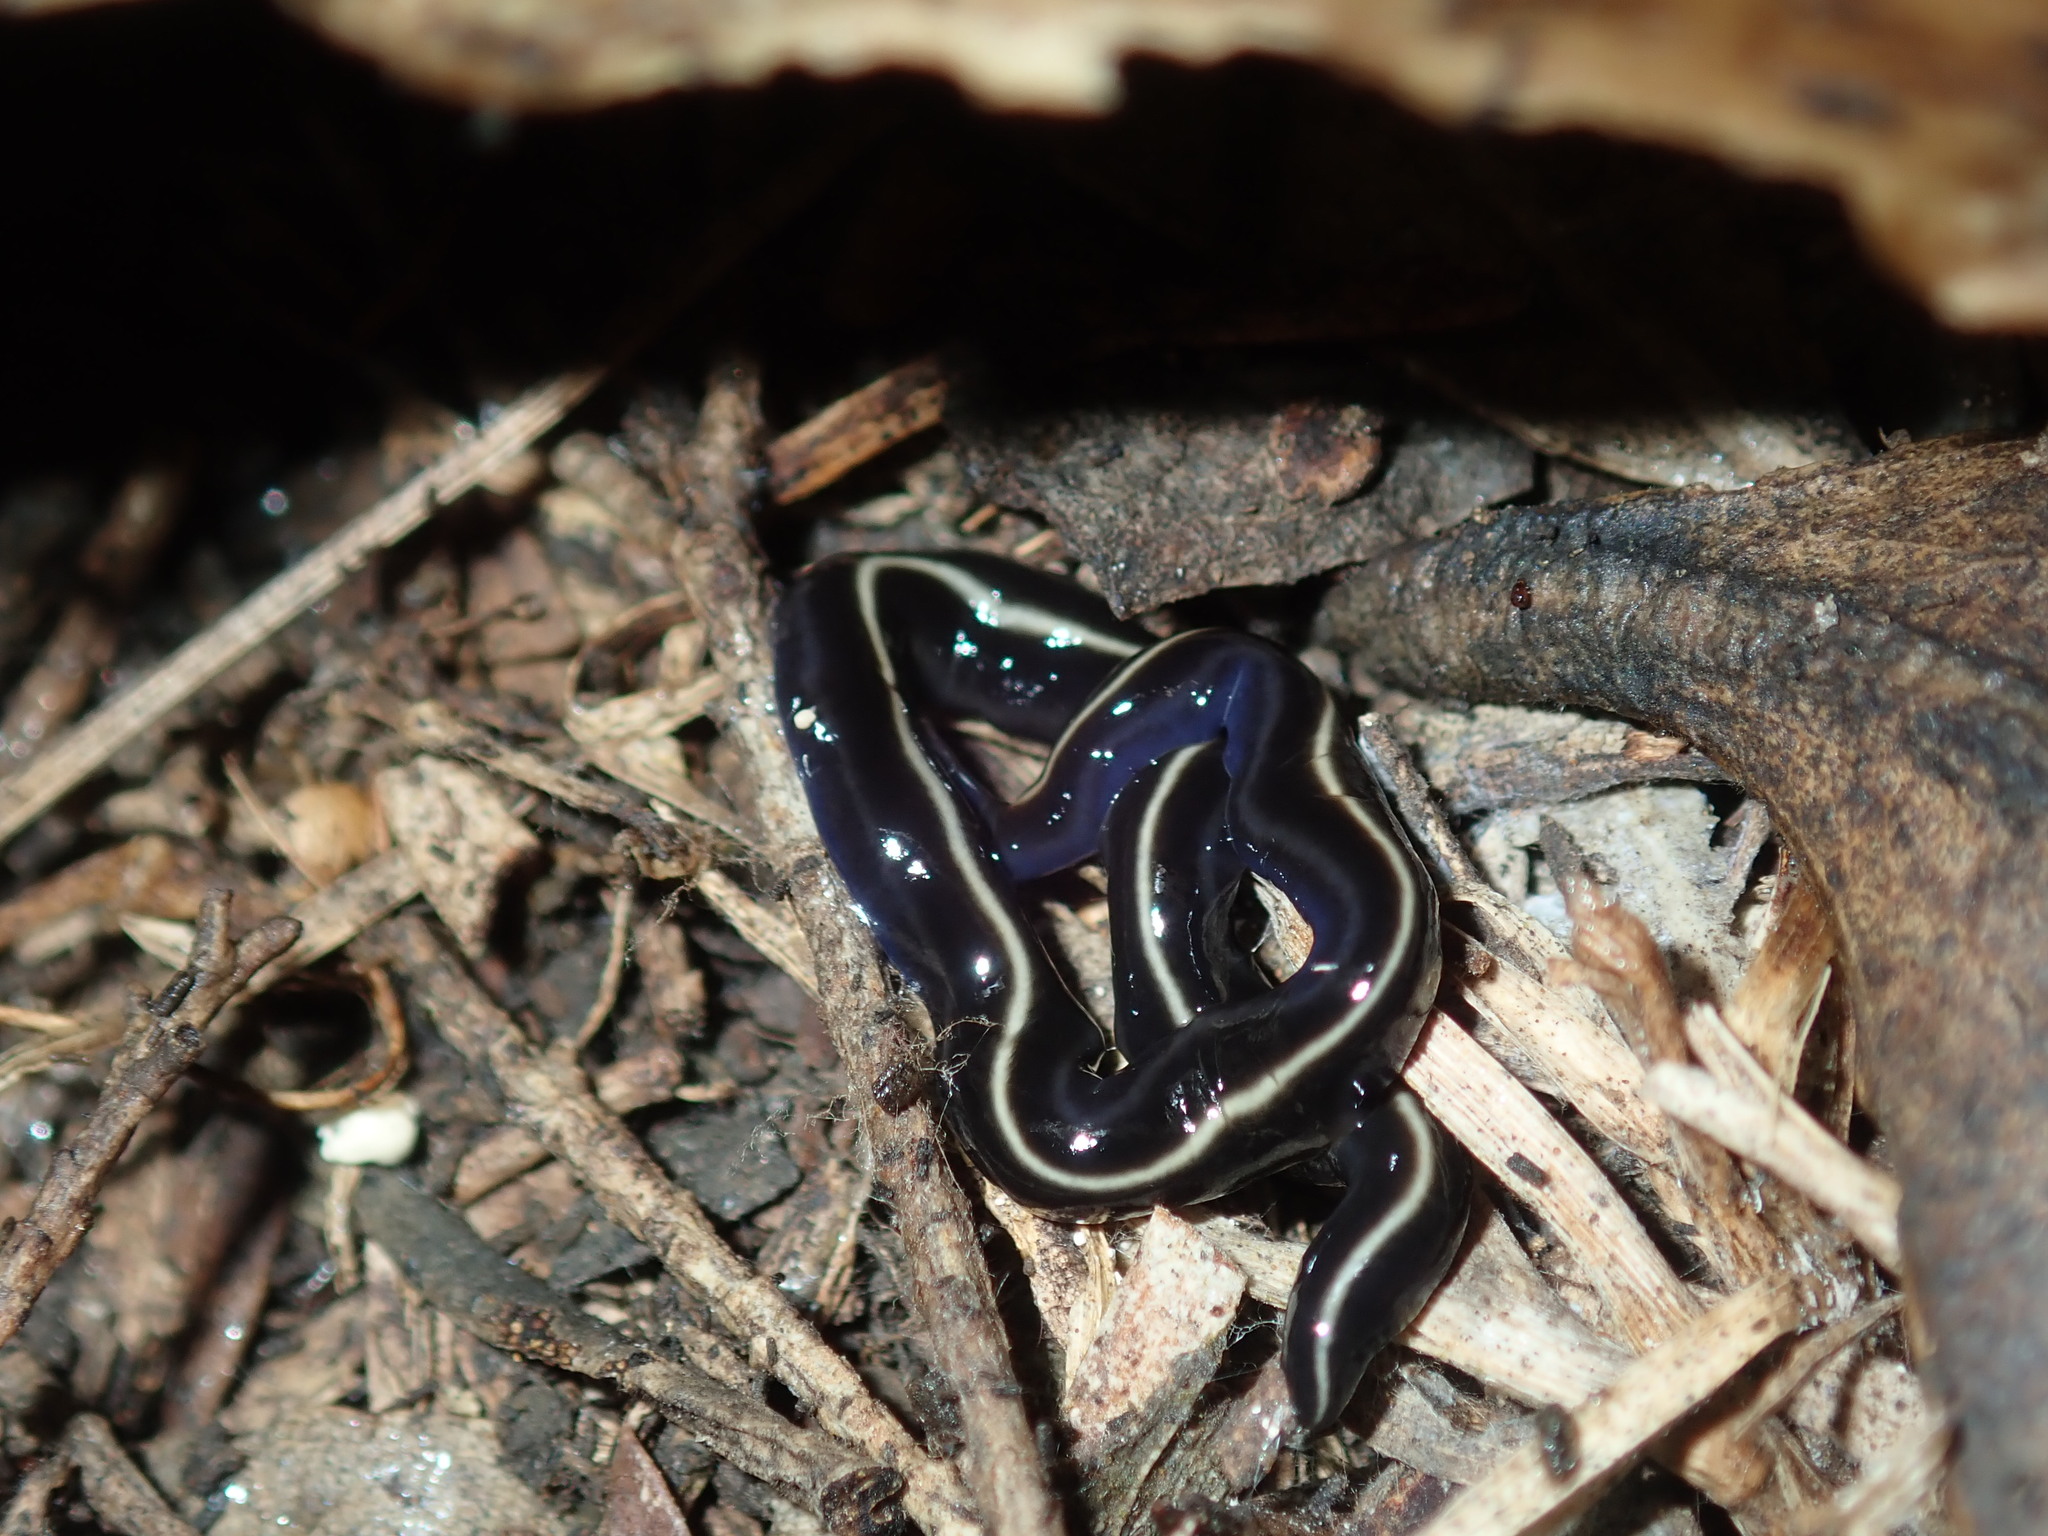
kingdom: Animalia
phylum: Platyhelminthes
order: Tricladida
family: Geoplanidae
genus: Caenoplana
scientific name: Caenoplana coerulea
